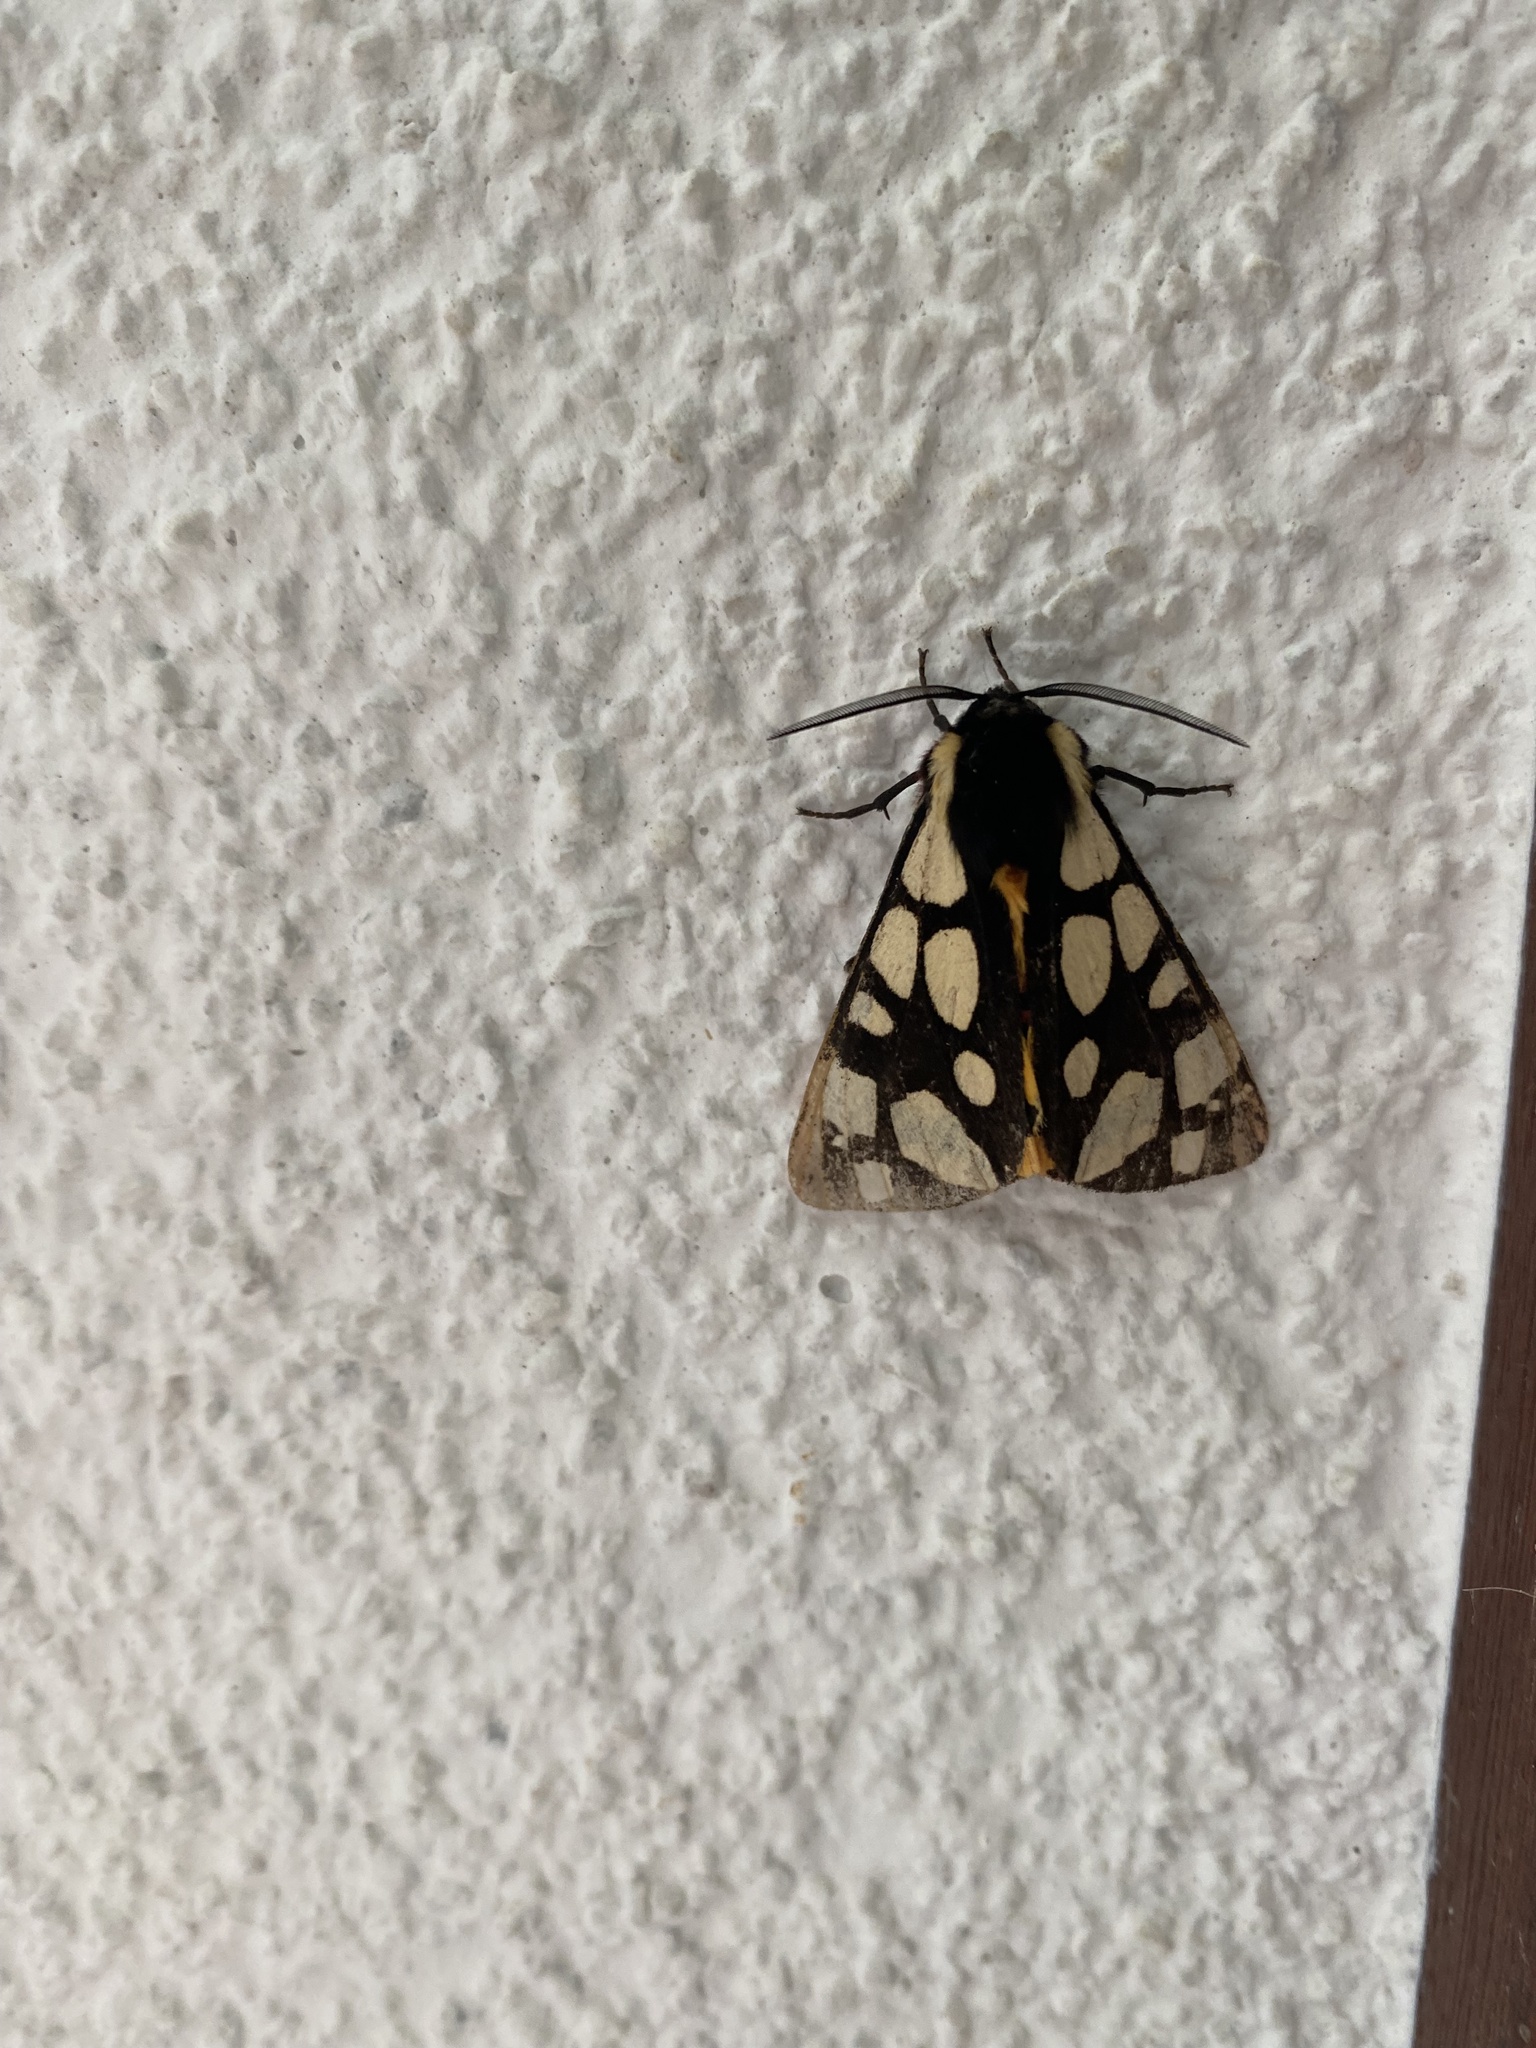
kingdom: Animalia
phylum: Arthropoda
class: Insecta
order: Lepidoptera
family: Erebidae
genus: Epicallia
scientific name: Epicallia villica
